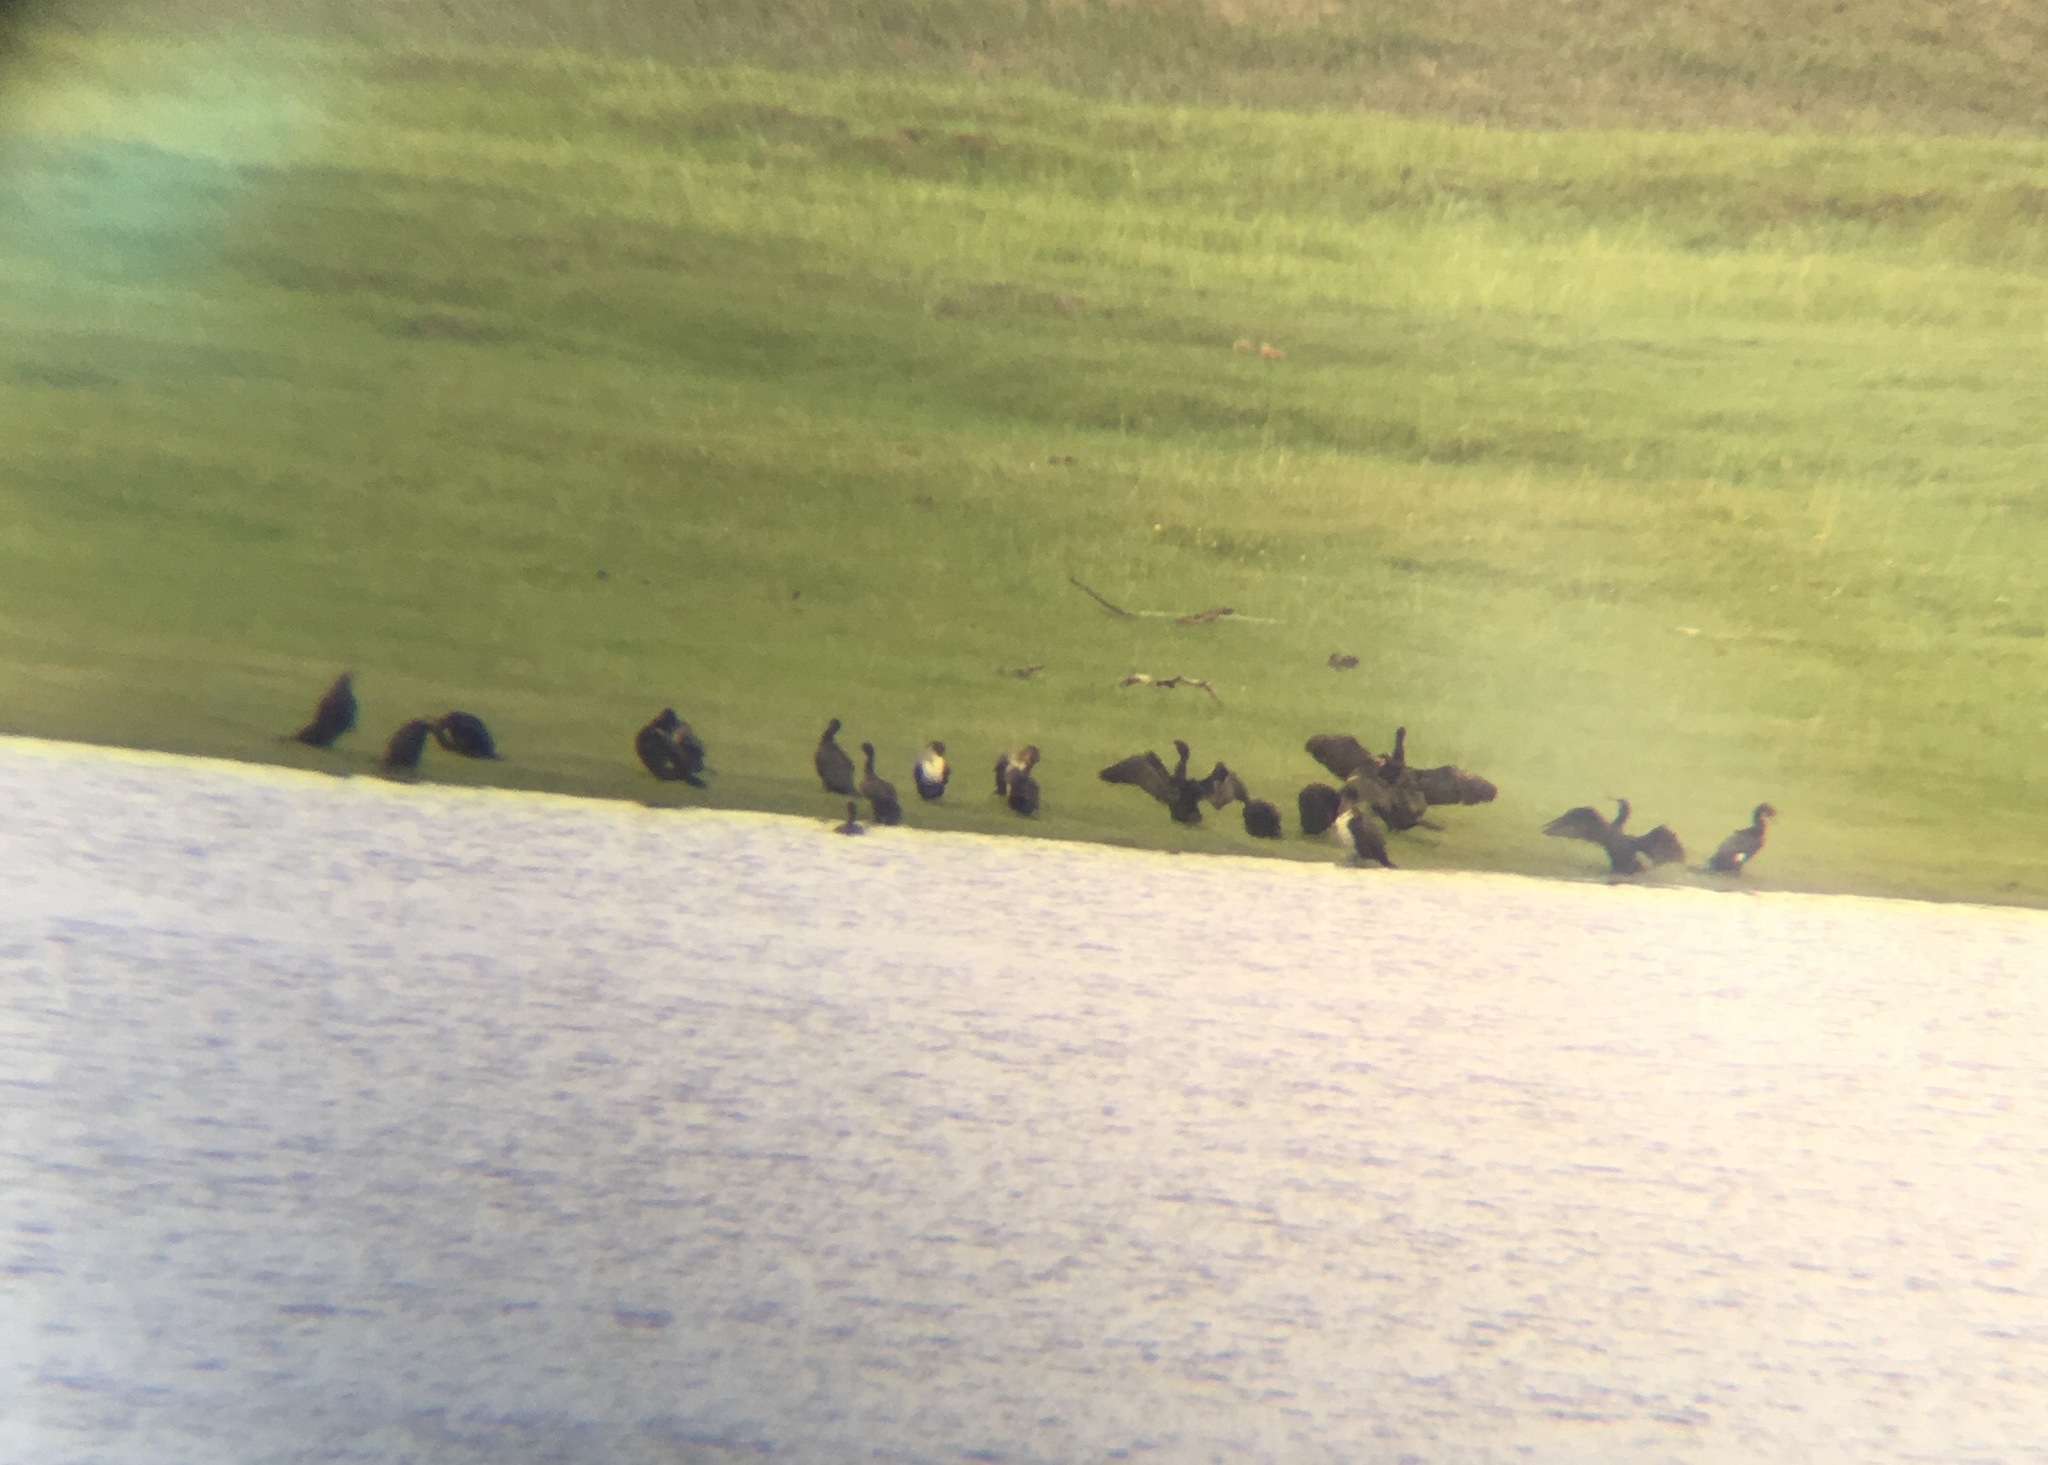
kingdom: Animalia
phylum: Chordata
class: Aves
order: Suliformes
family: Phalacrocoracidae
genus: Phalacrocorax
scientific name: Phalacrocorax carbo
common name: Great cormorant
